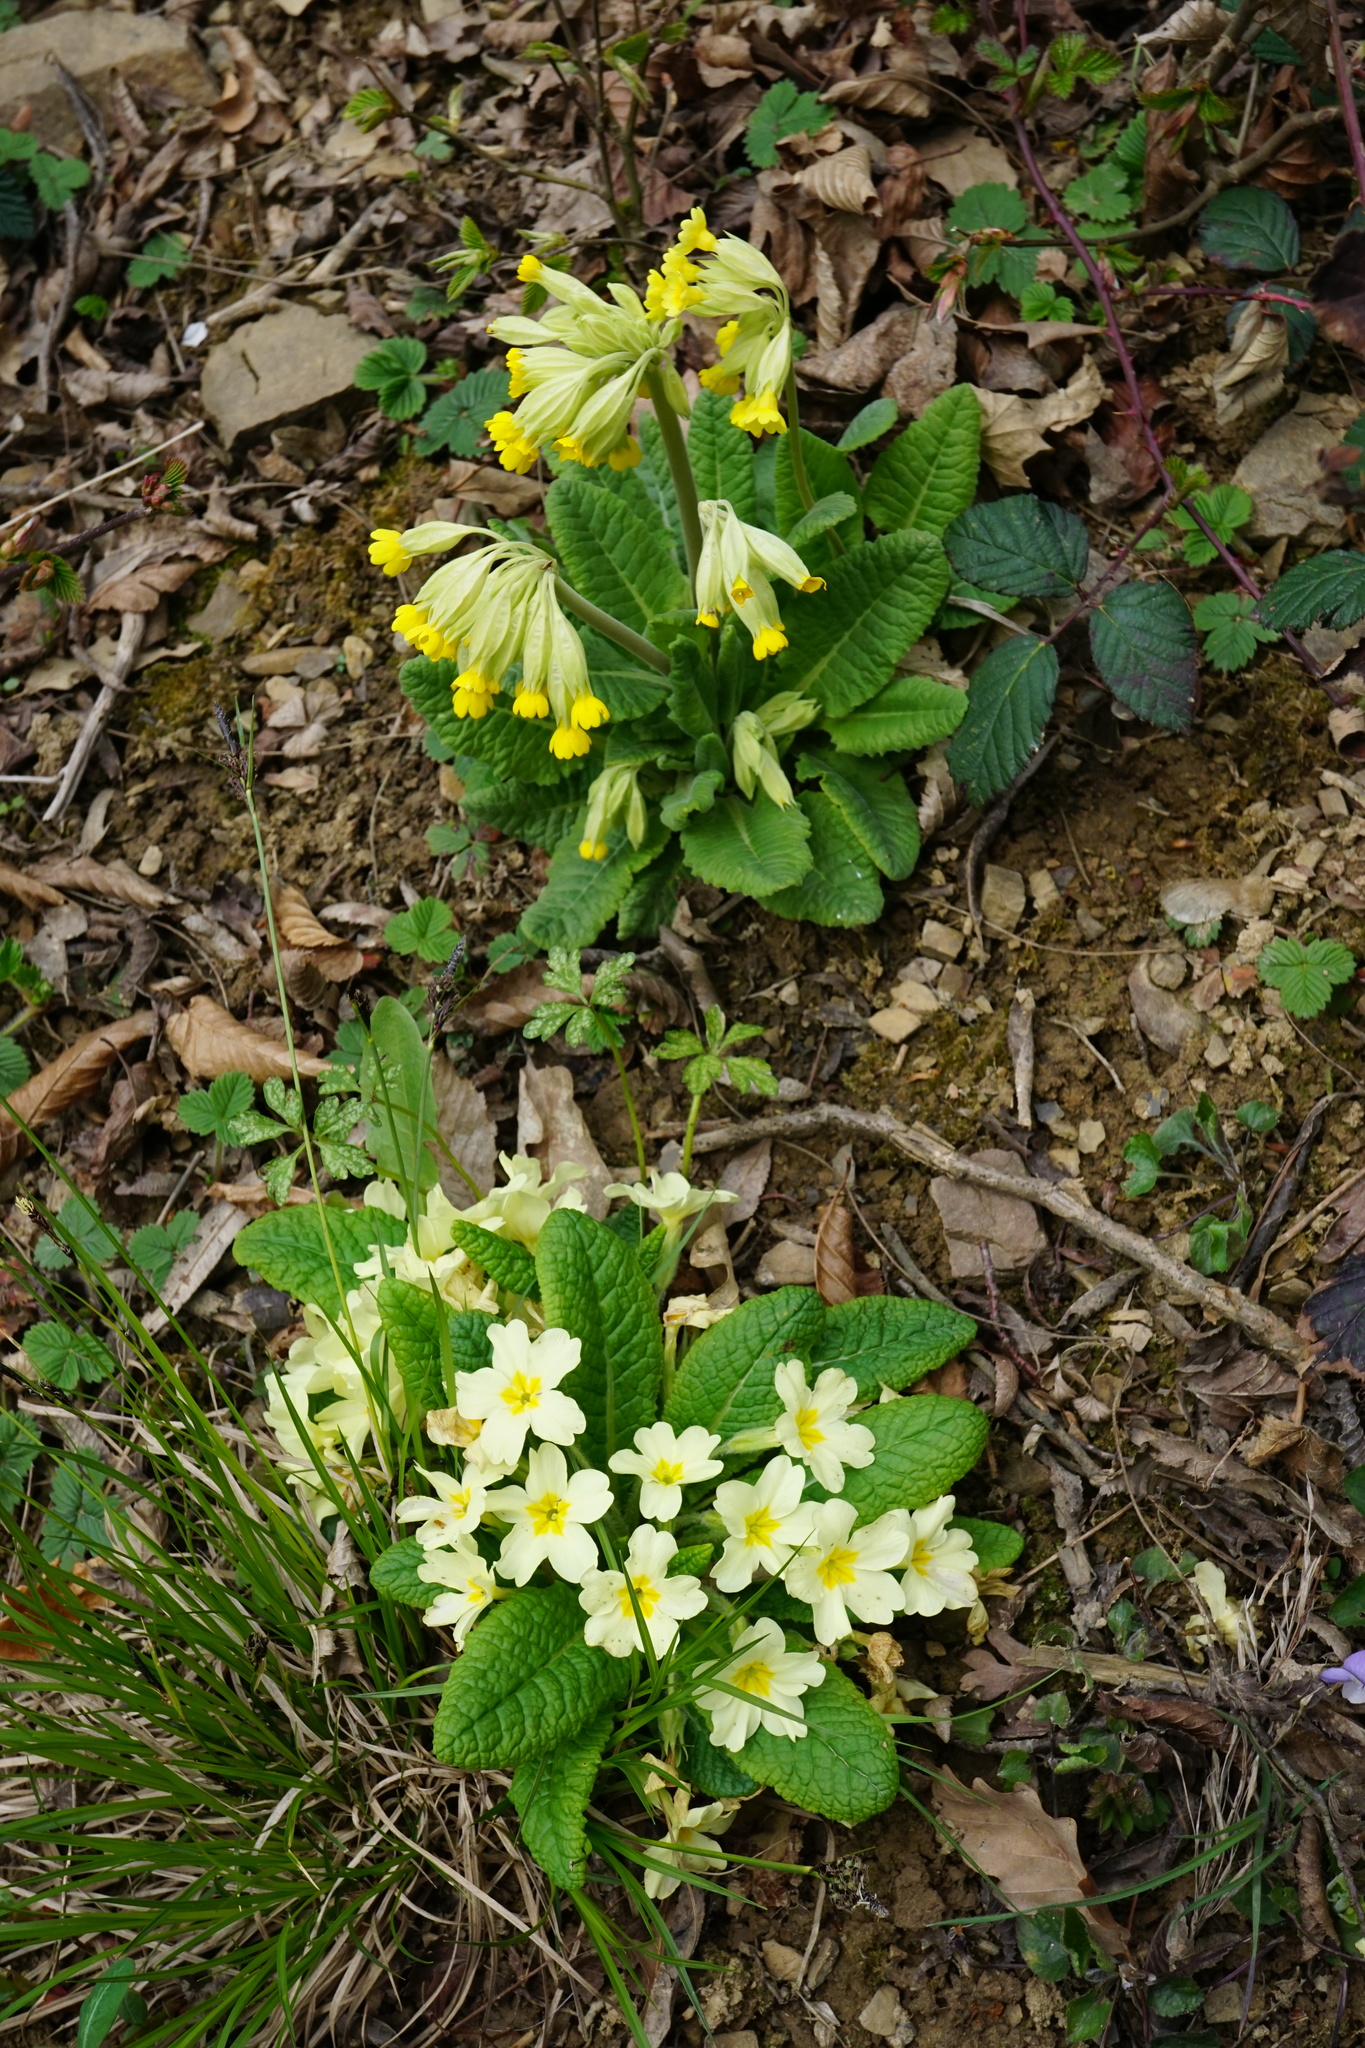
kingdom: Plantae
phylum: Tracheophyta
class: Magnoliopsida
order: Ericales
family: Primulaceae
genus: Primula
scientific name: Primula vulgaris
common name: Primrose
